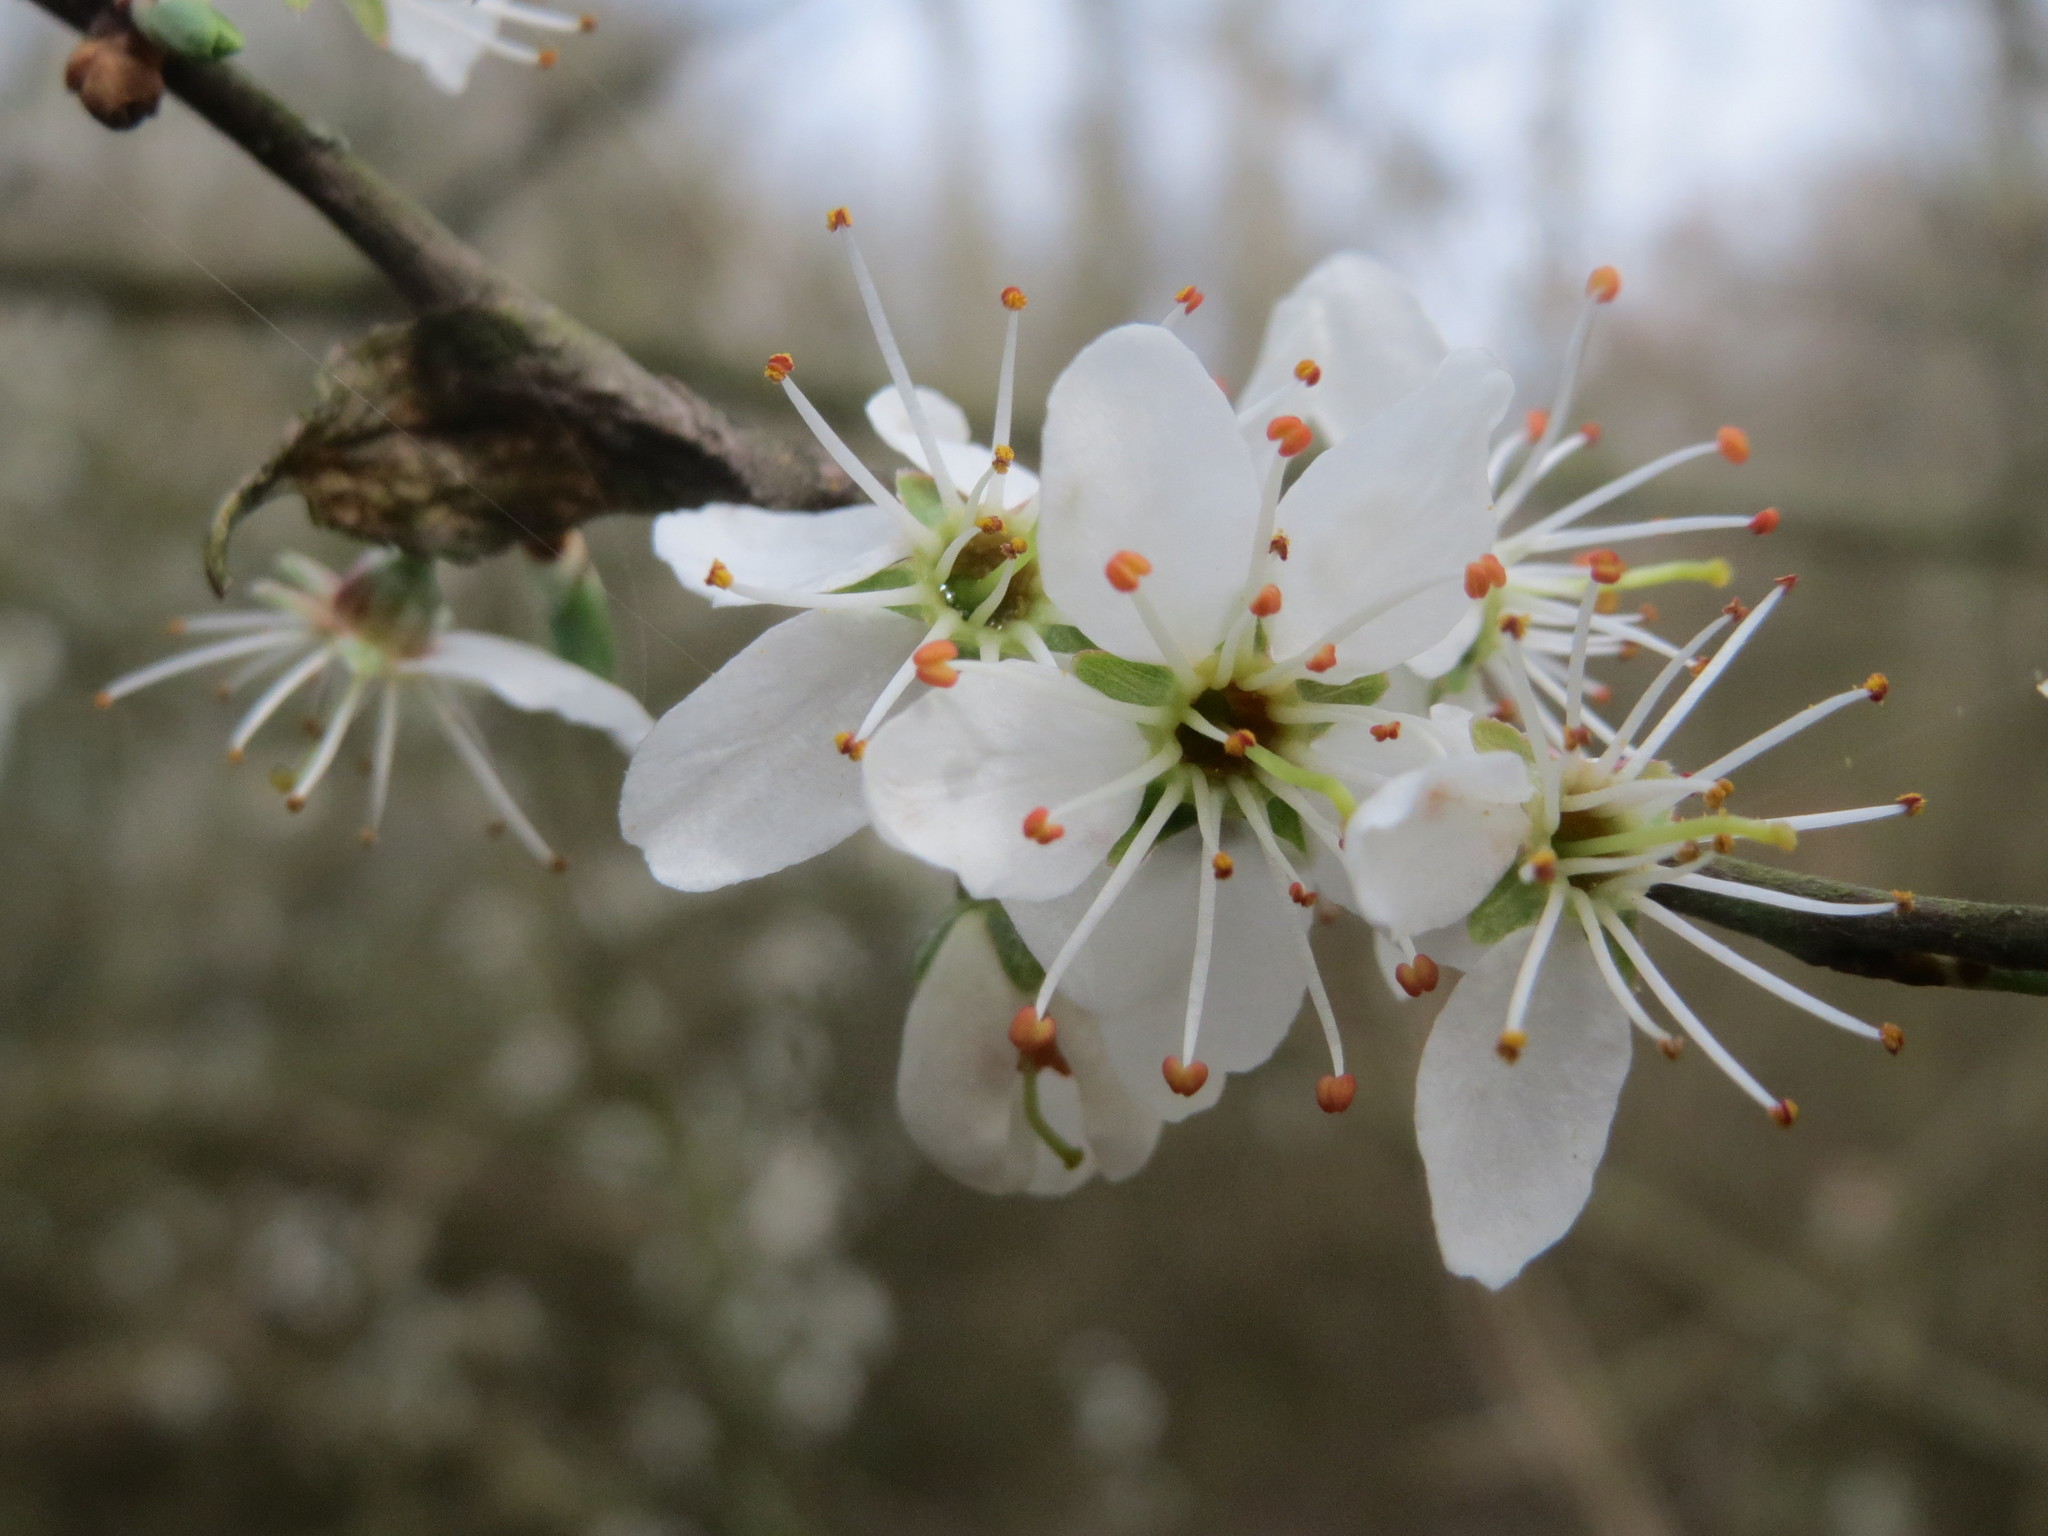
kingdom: Plantae
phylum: Tracheophyta
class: Magnoliopsida
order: Rosales
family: Rosaceae
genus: Prunus
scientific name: Prunus spinosa
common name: Blackthorn
